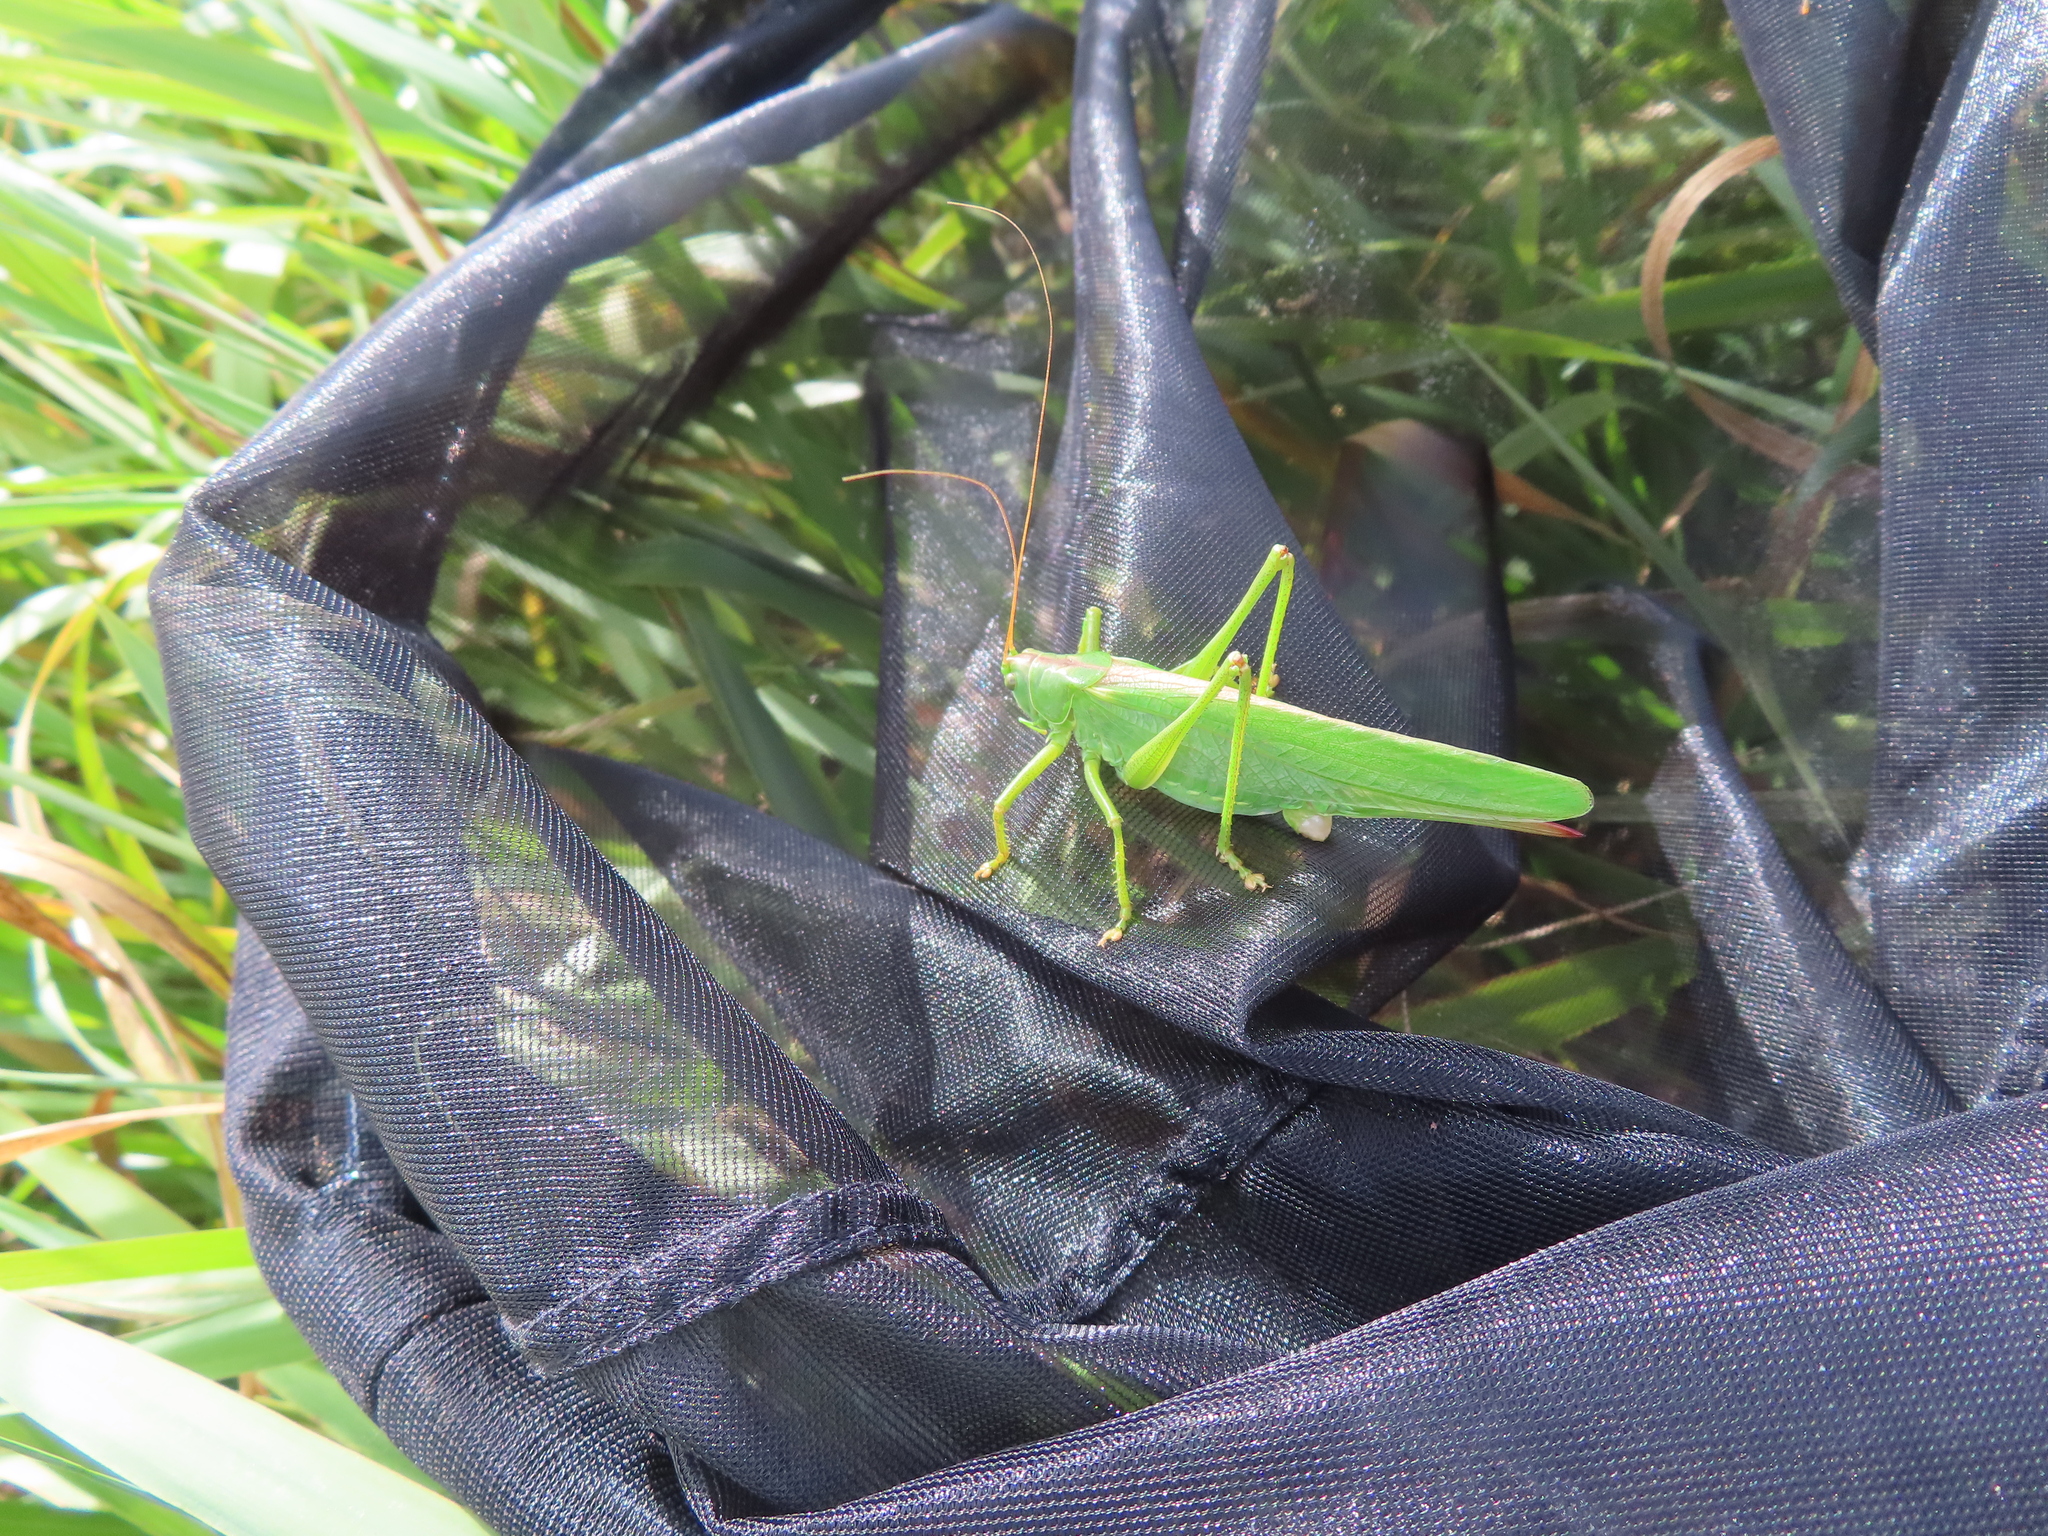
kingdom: Animalia
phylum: Arthropoda
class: Insecta
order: Orthoptera
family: Tettigoniidae
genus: Tettigonia
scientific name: Tettigonia viridissima
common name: Great green bush-cricket
